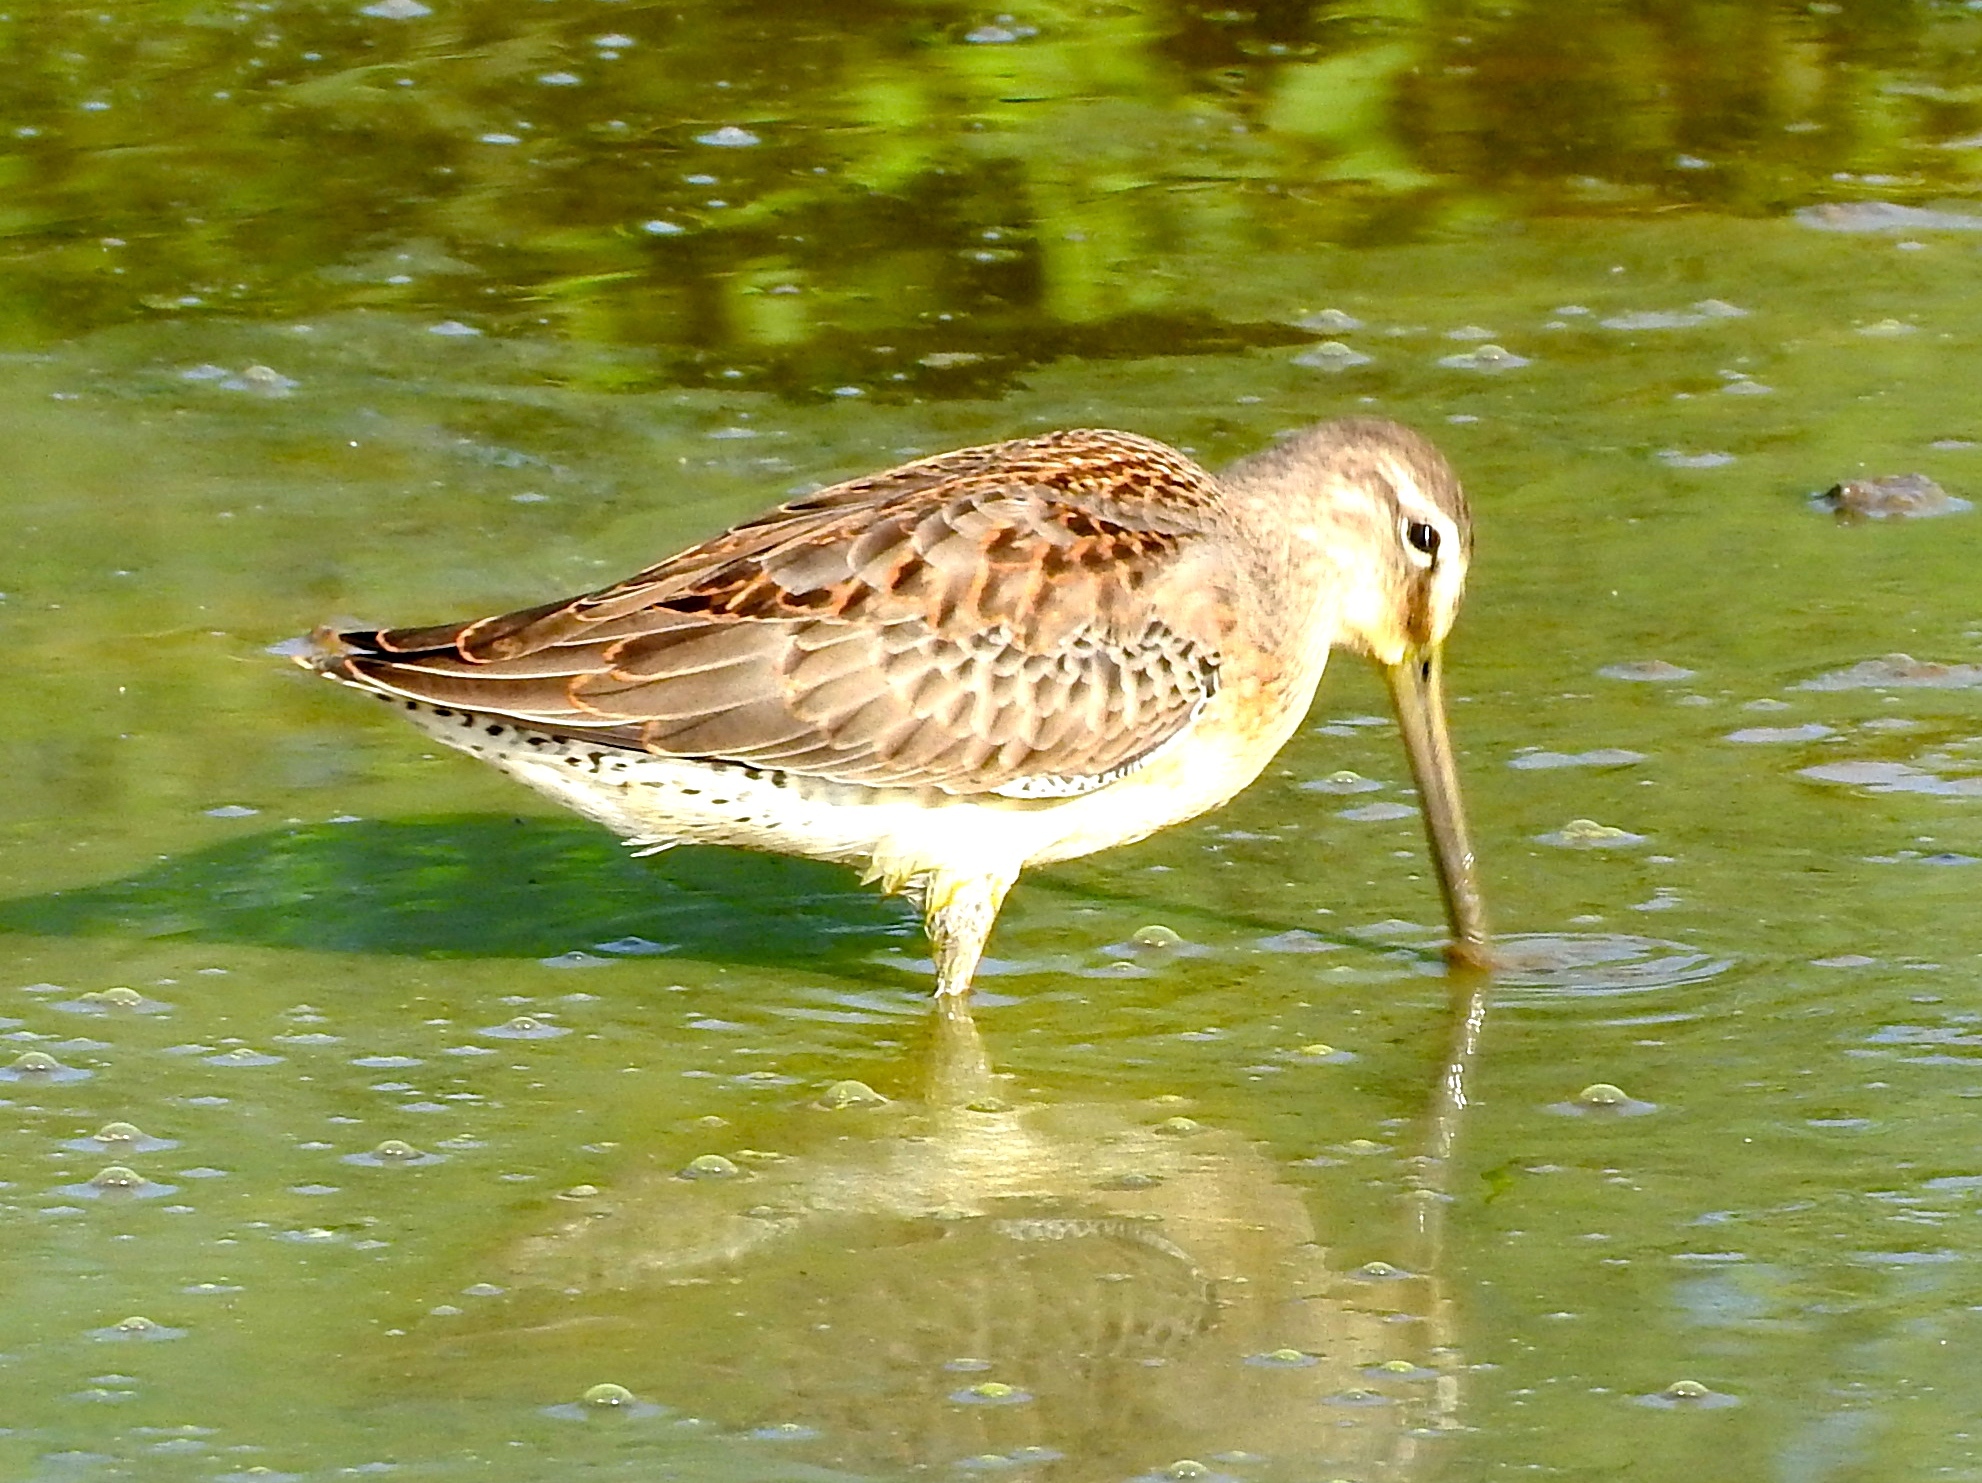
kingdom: Animalia
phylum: Chordata
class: Aves
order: Charadriiformes
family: Scolopacidae
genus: Limnodromus
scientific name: Limnodromus
